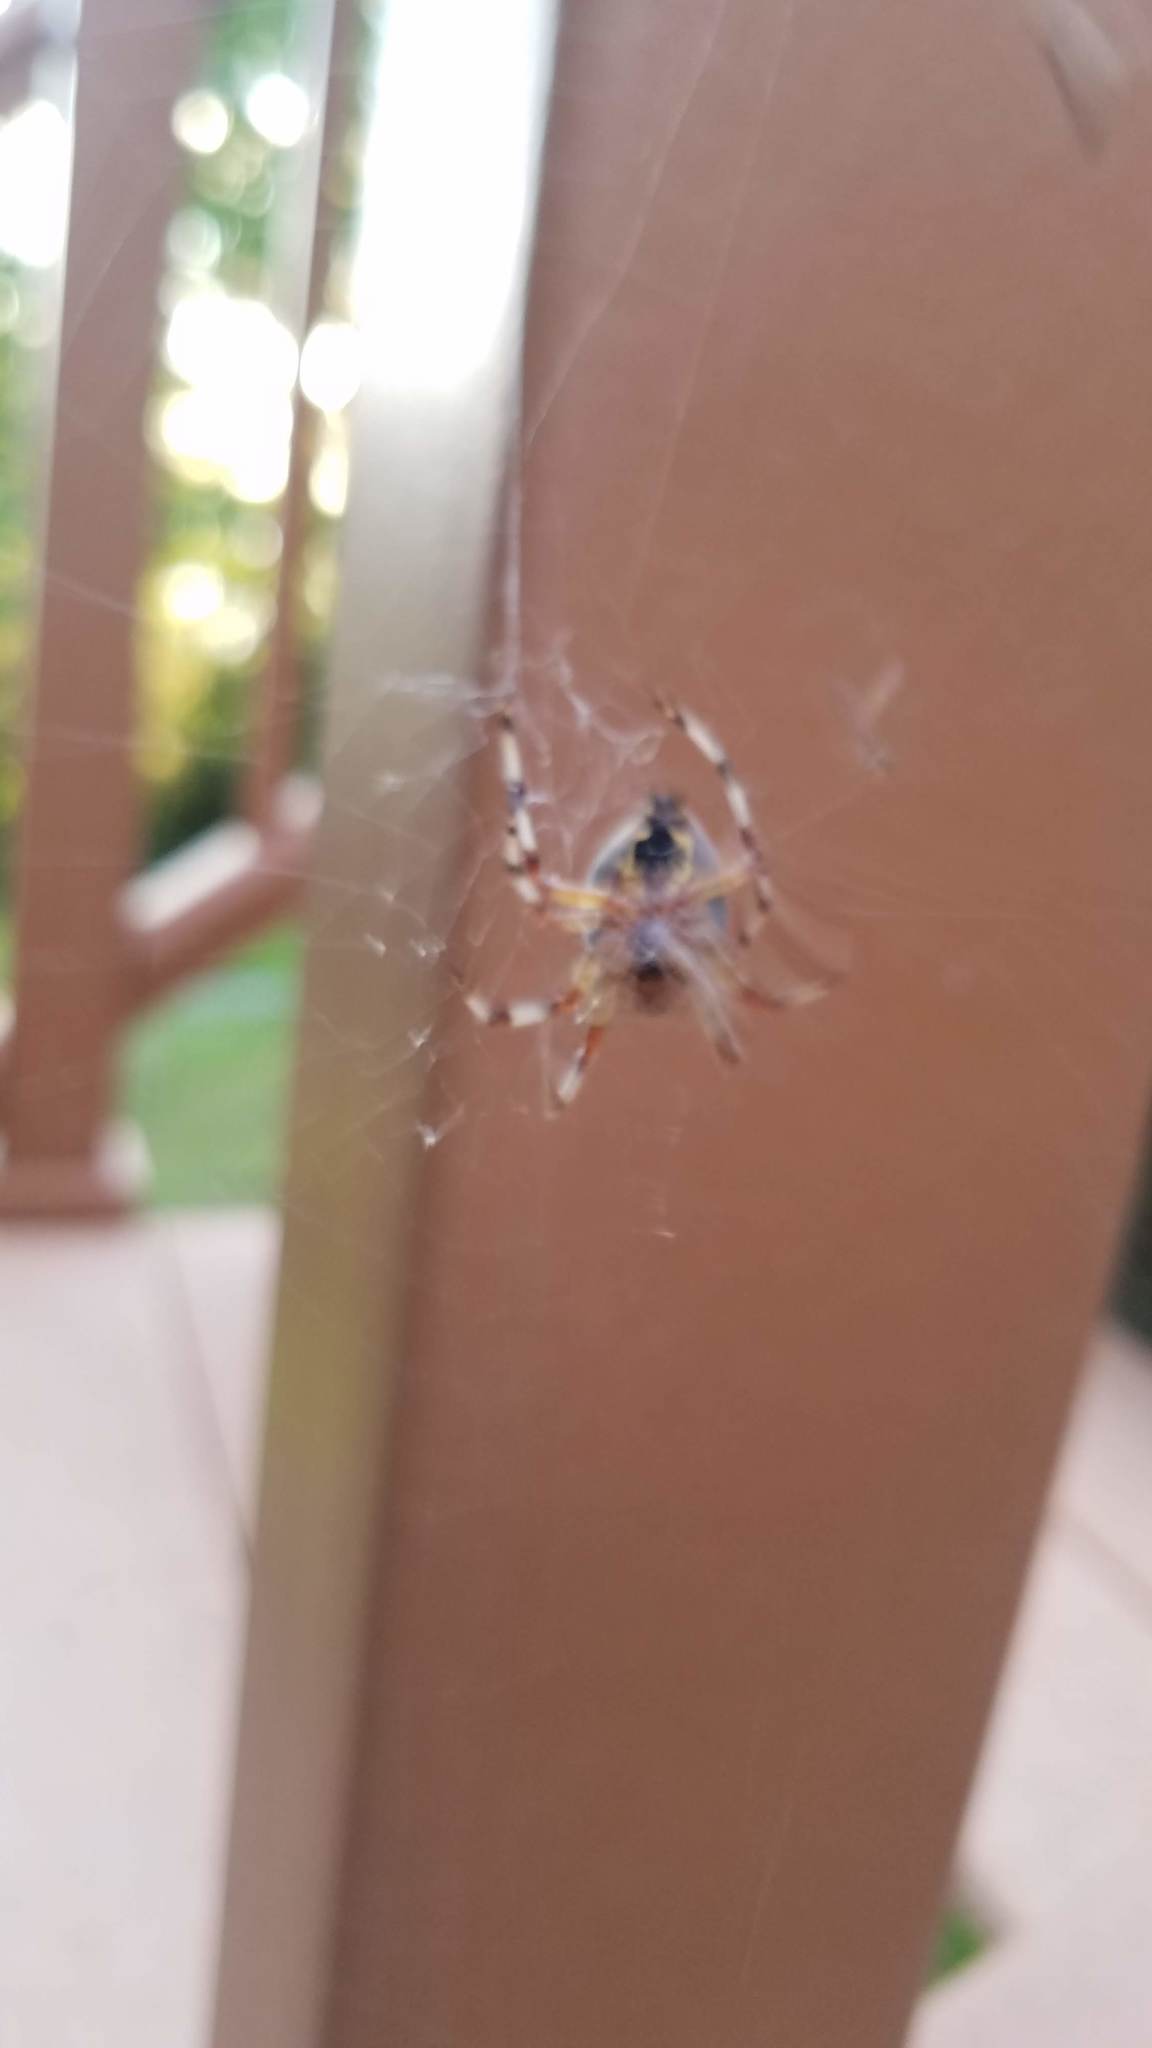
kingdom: Animalia
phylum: Arthropoda
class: Arachnida
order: Araneae
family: Araneidae
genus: Araneus
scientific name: Araneus marmoreus
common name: Marbled orbweaver
